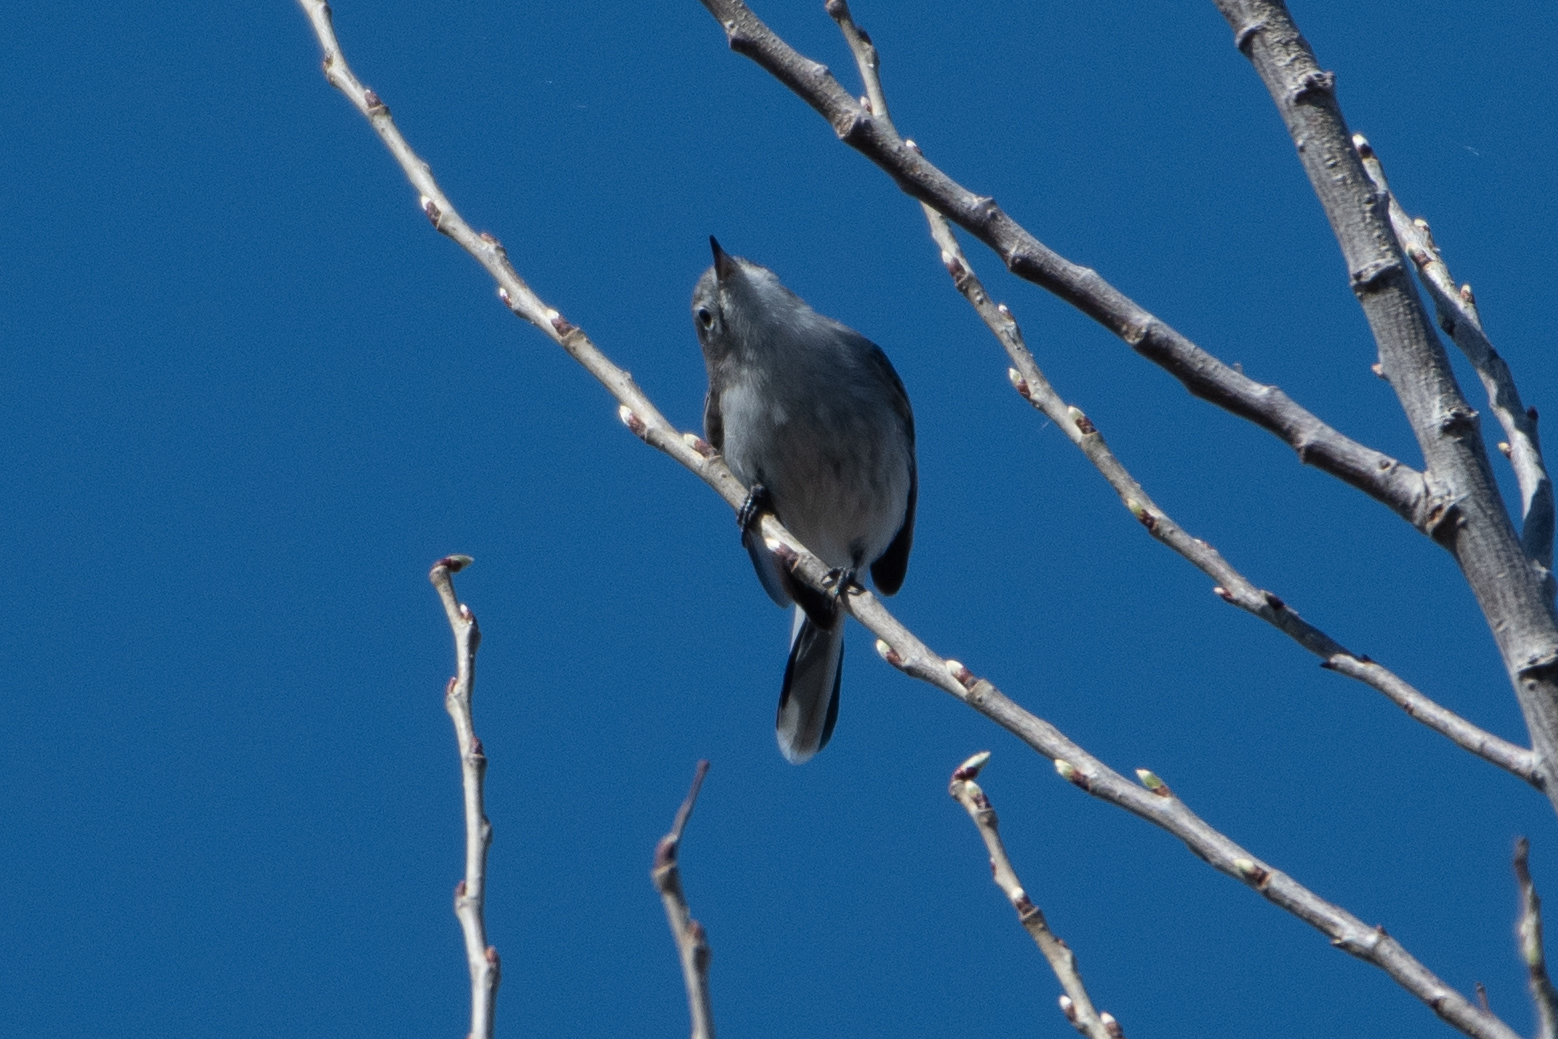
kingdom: Animalia
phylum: Chordata
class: Aves
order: Passeriformes
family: Polioptilidae
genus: Polioptila
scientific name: Polioptila caerulea
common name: Blue-gray gnatcatcher
